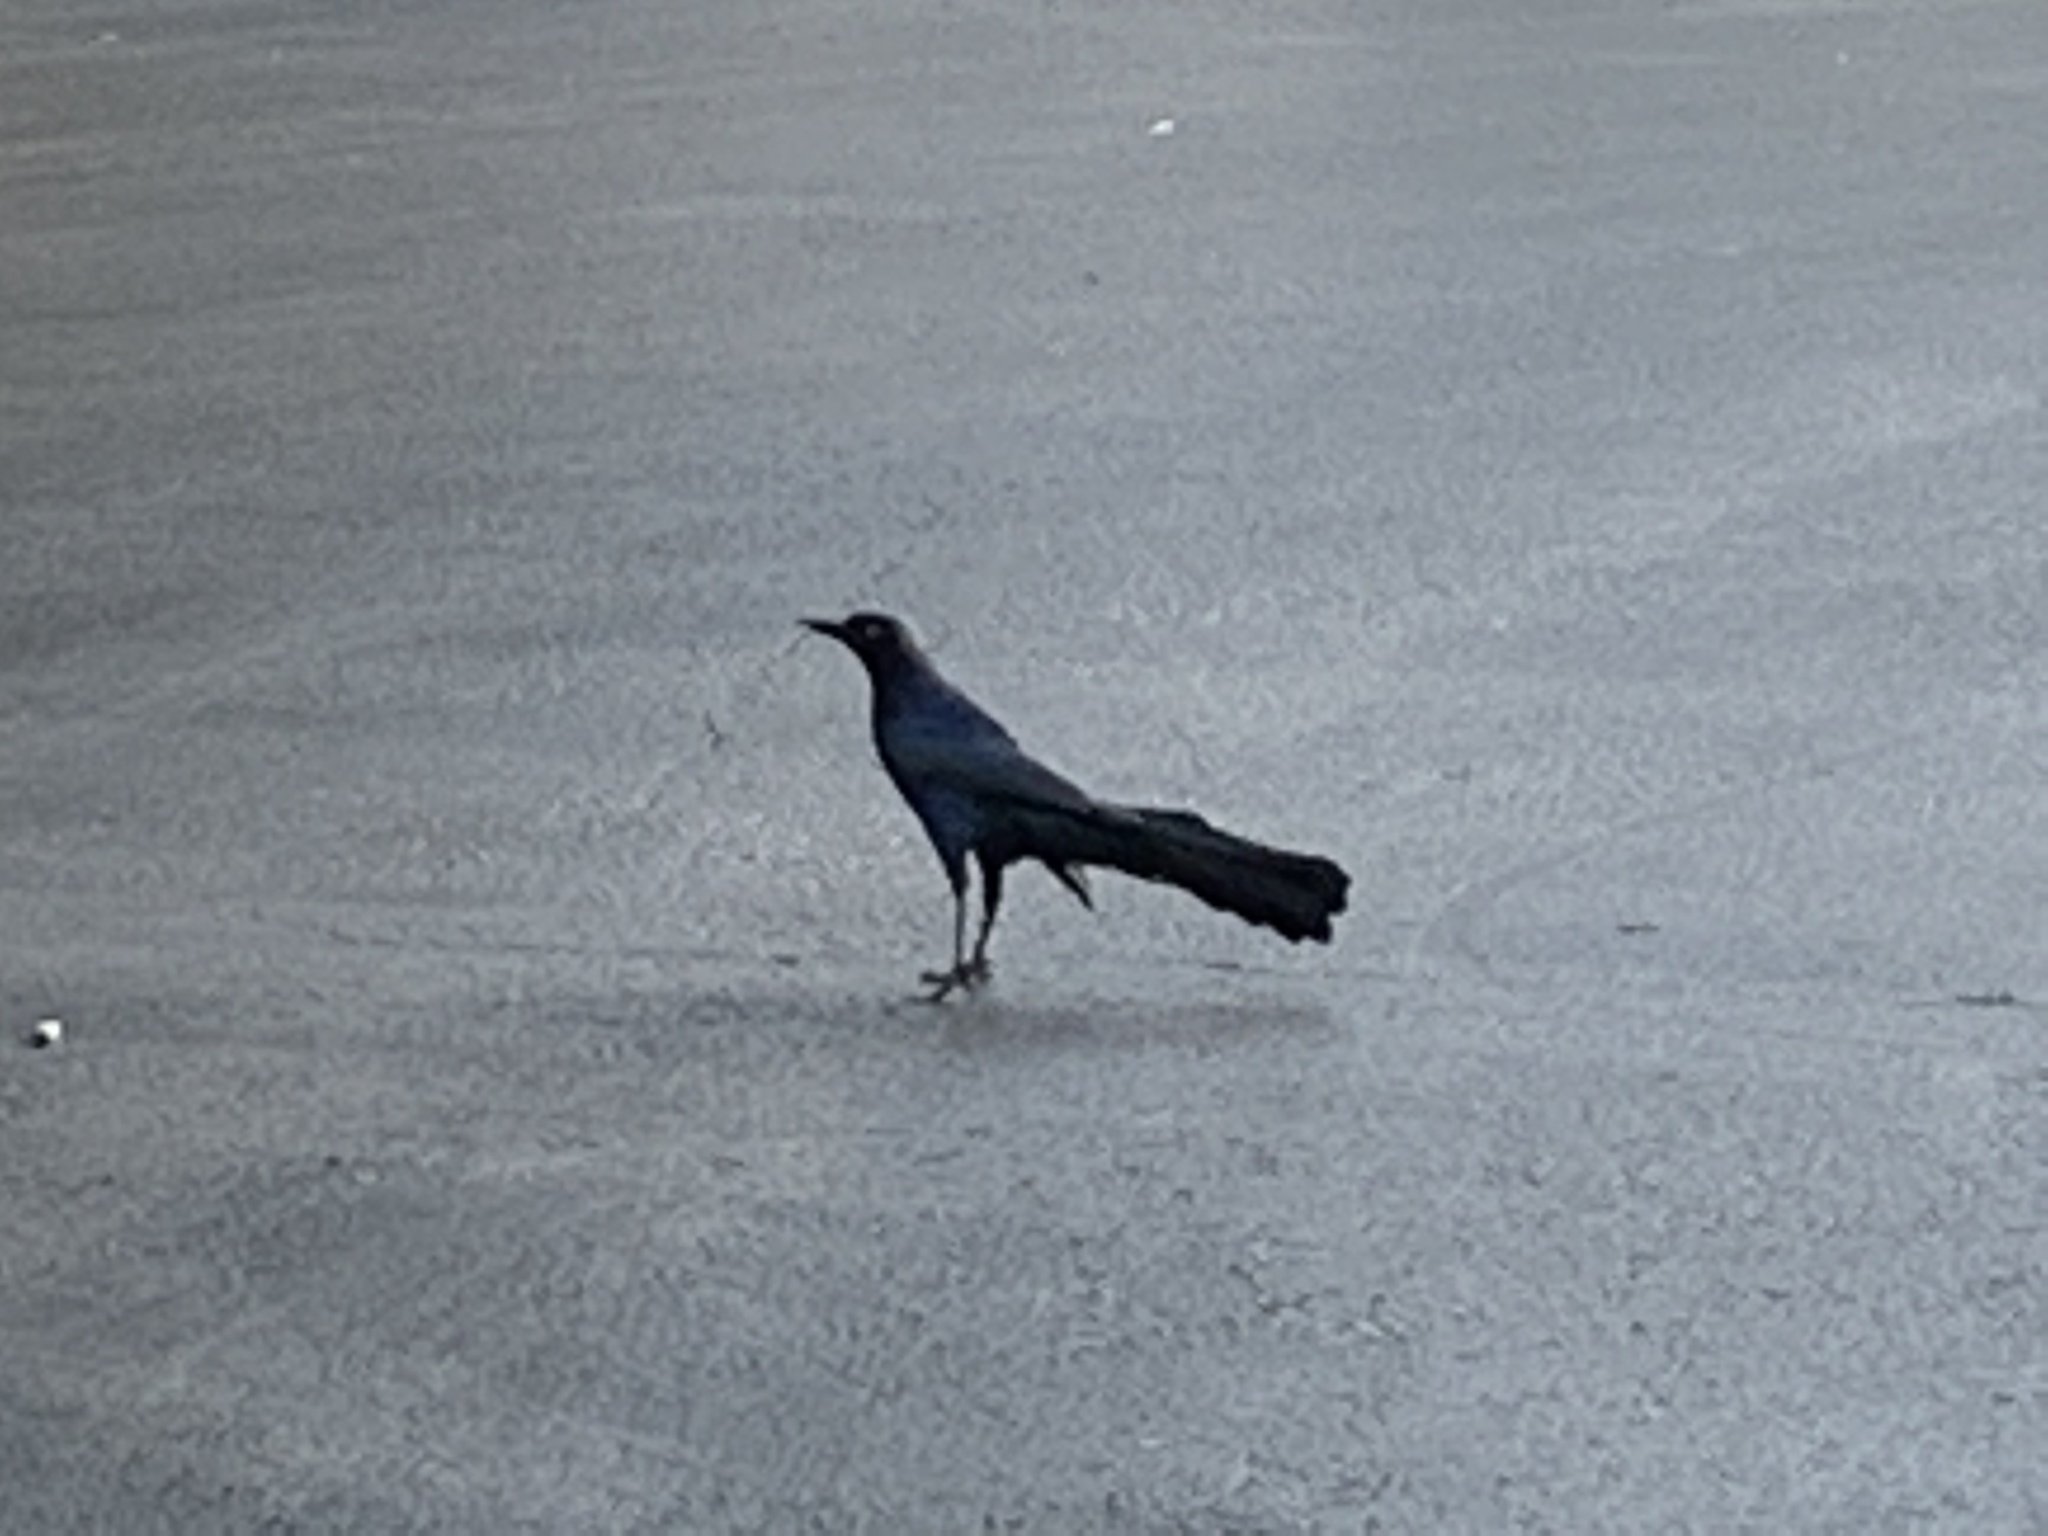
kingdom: Animalia
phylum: Chordata
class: Aves
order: Passeriformes
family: Icteridae
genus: Quiscalus
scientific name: Quiscalus mexicanus
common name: Great-tailed grackle
